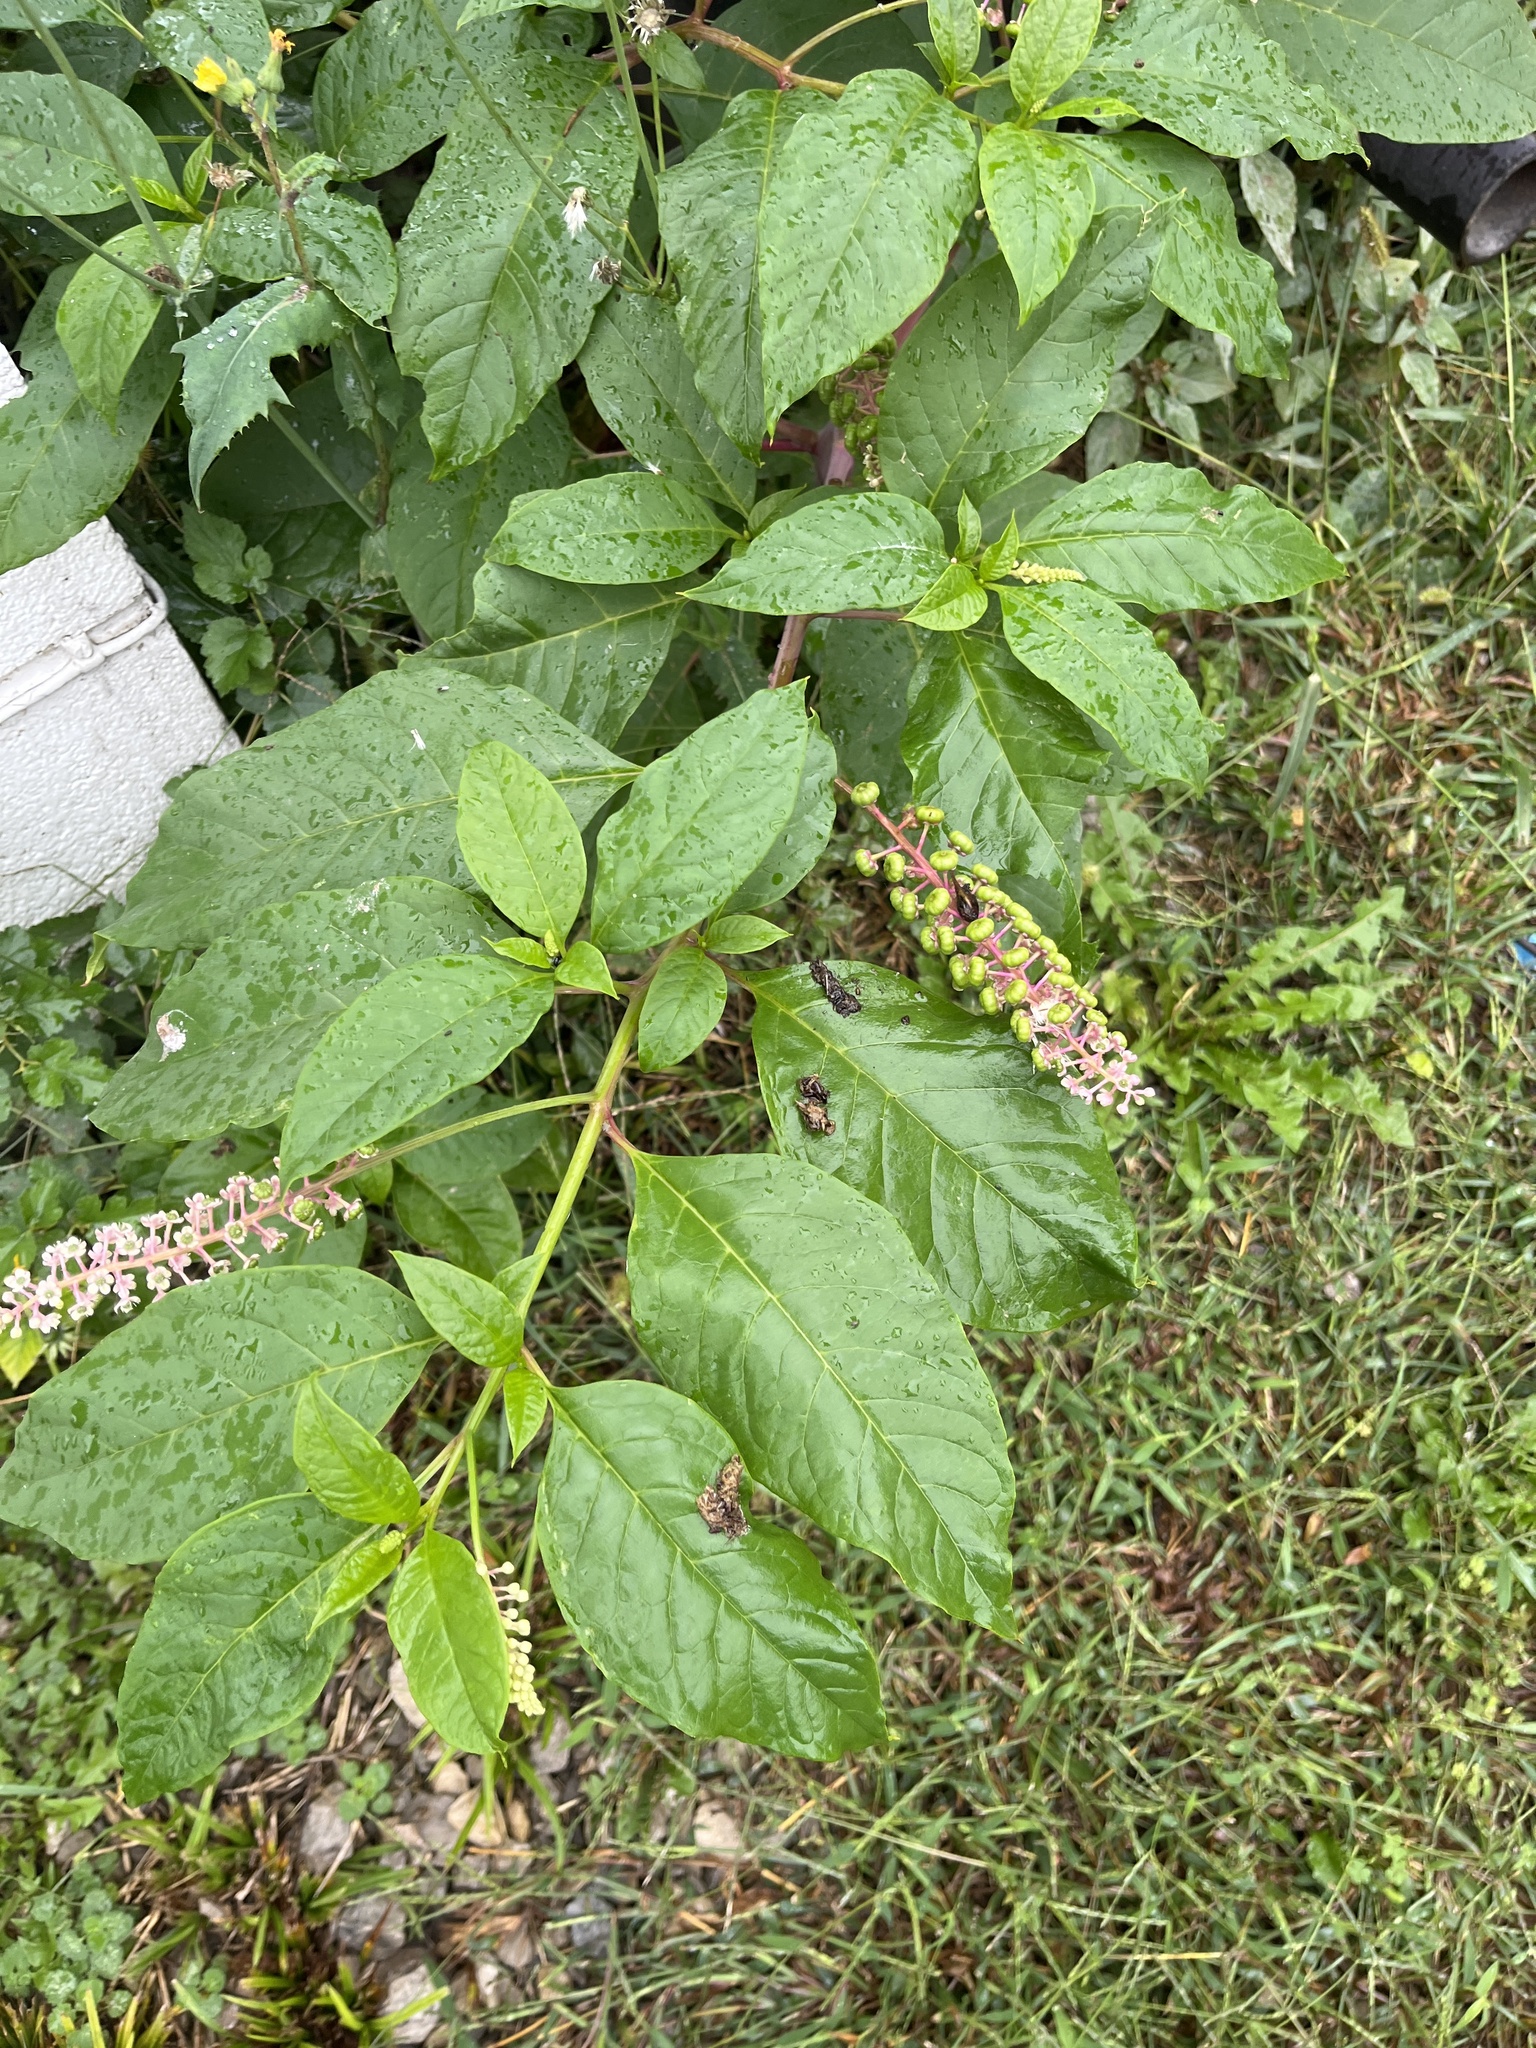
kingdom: Plantae
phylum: Tracheophyta
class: Magnoliopsida
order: Caryophyllales
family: Phytolaccaceae
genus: Phytolacca
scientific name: Phytolacca americana
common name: American pokeweed
